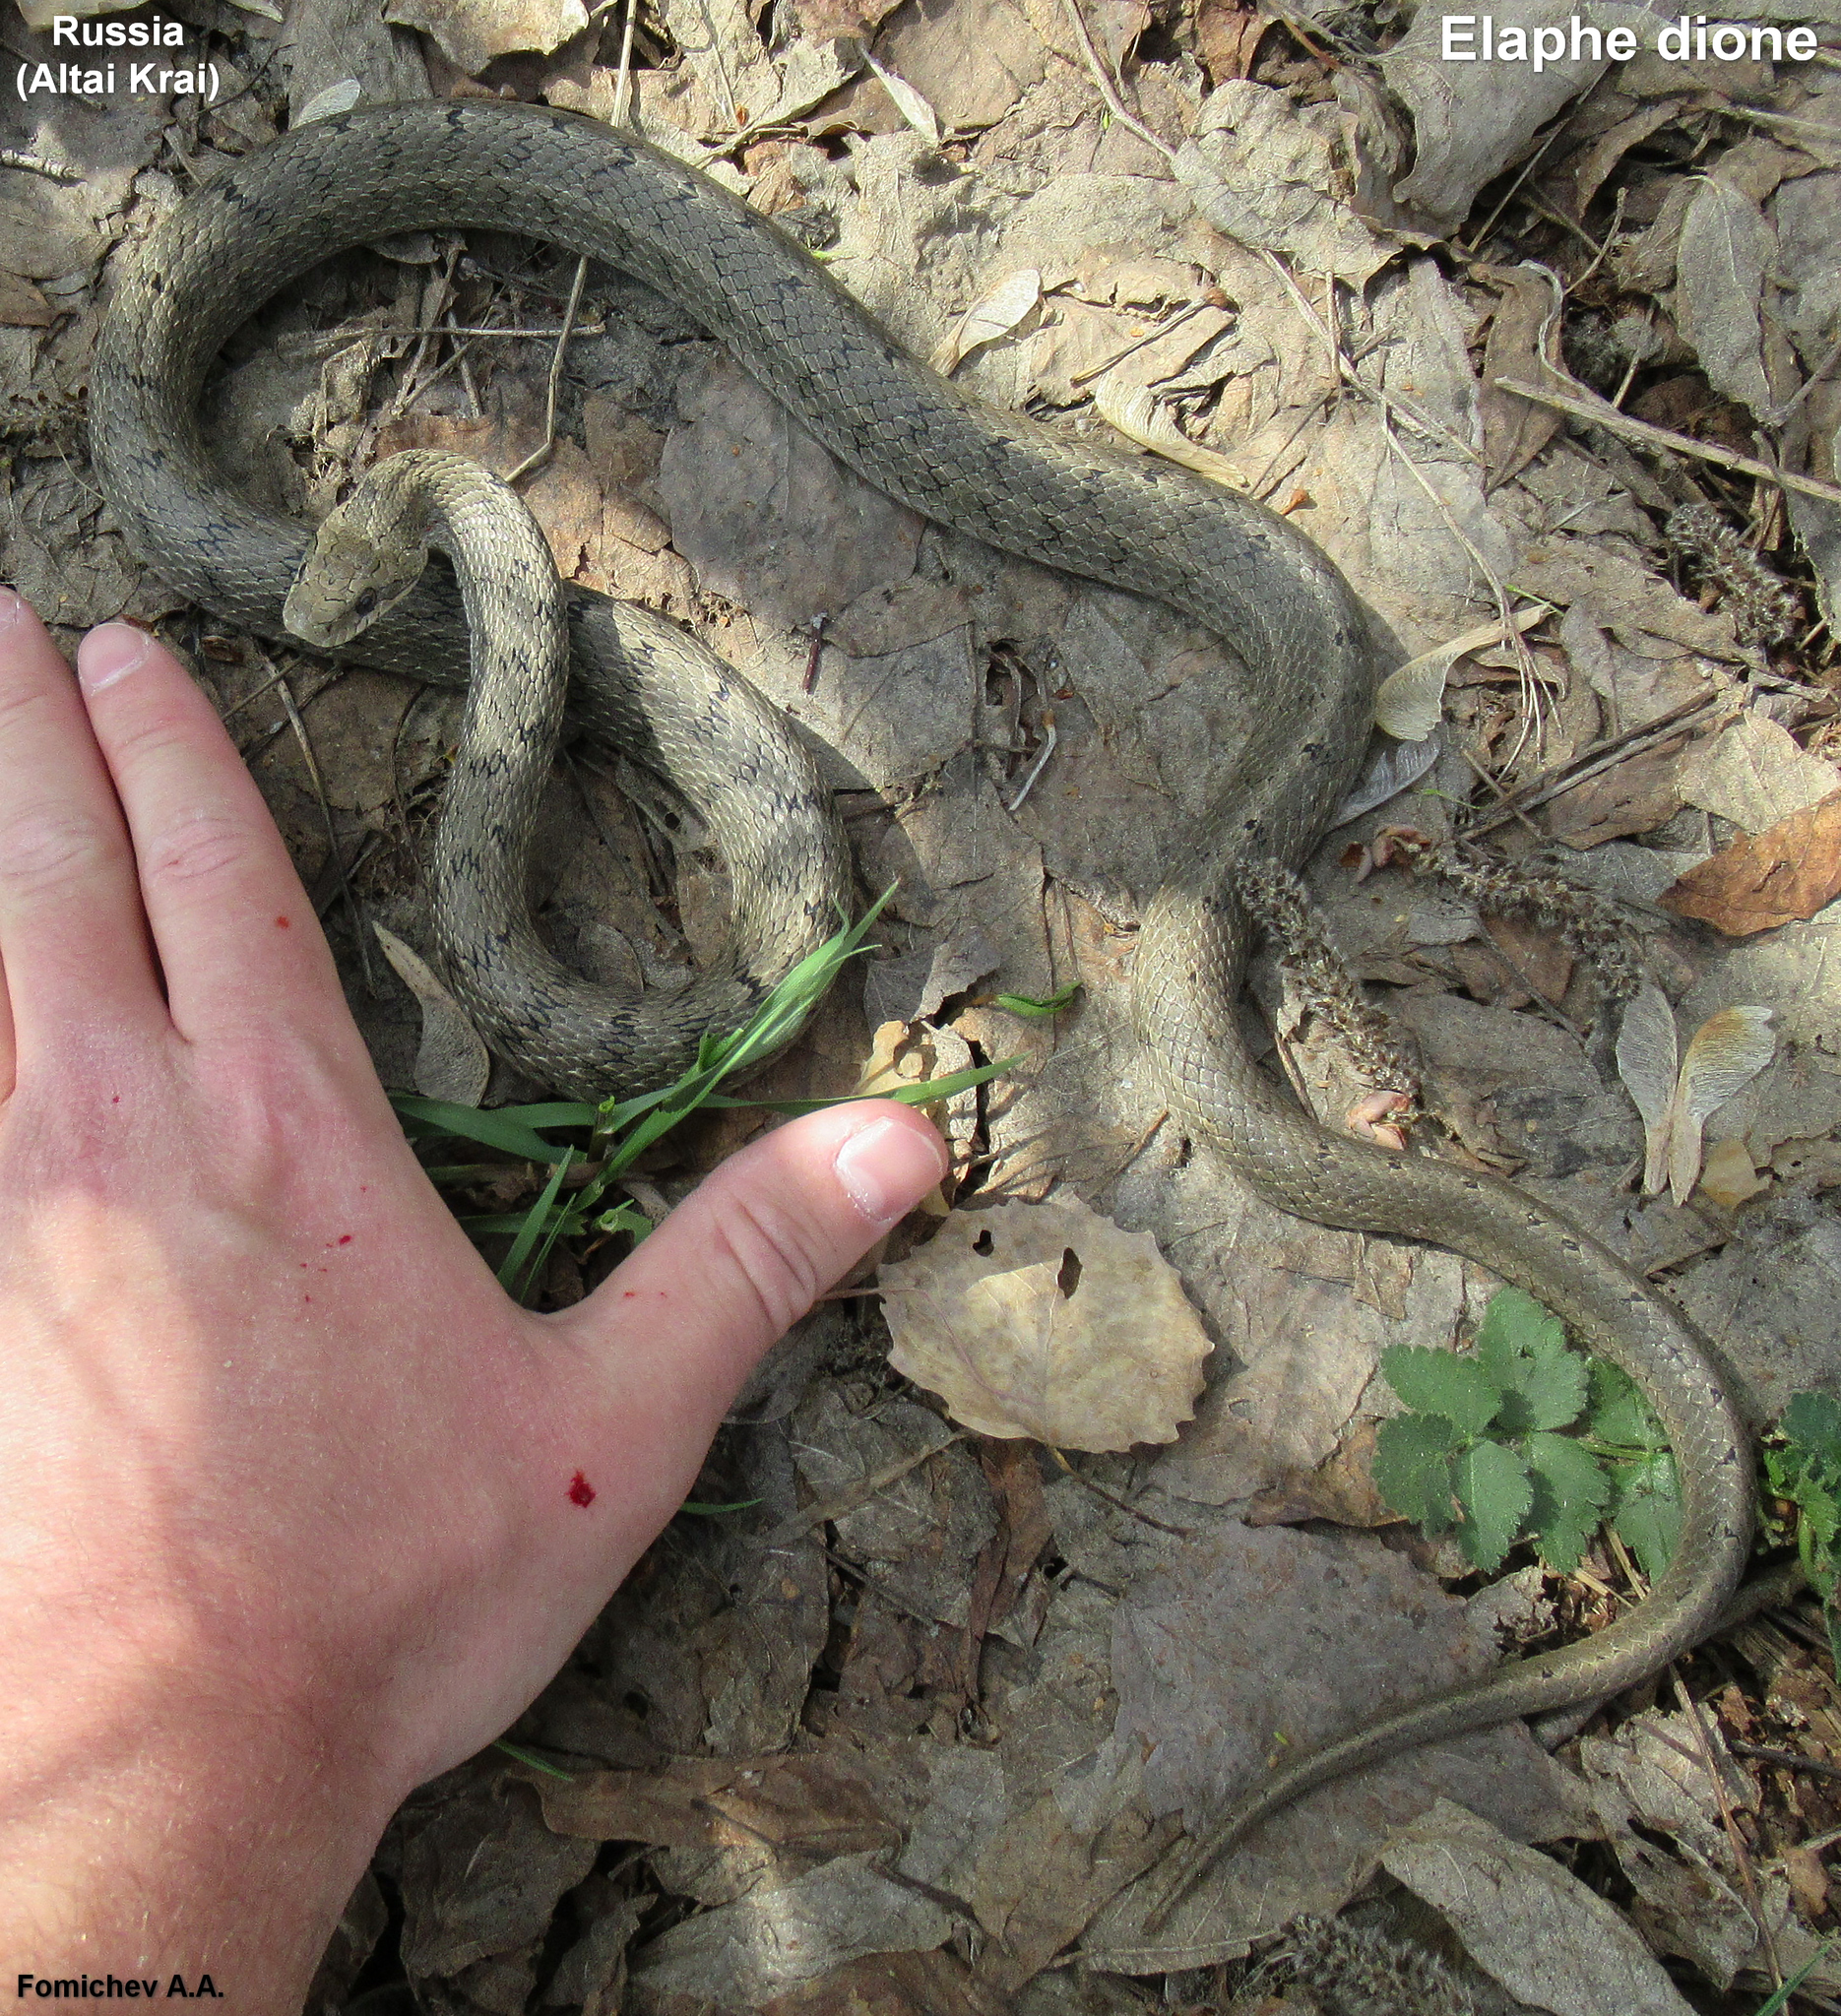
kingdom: Animalia
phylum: Chordata
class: Squamata
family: Colubridae
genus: Elaphe
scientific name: Elaphe dione
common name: Dione ratsnake
